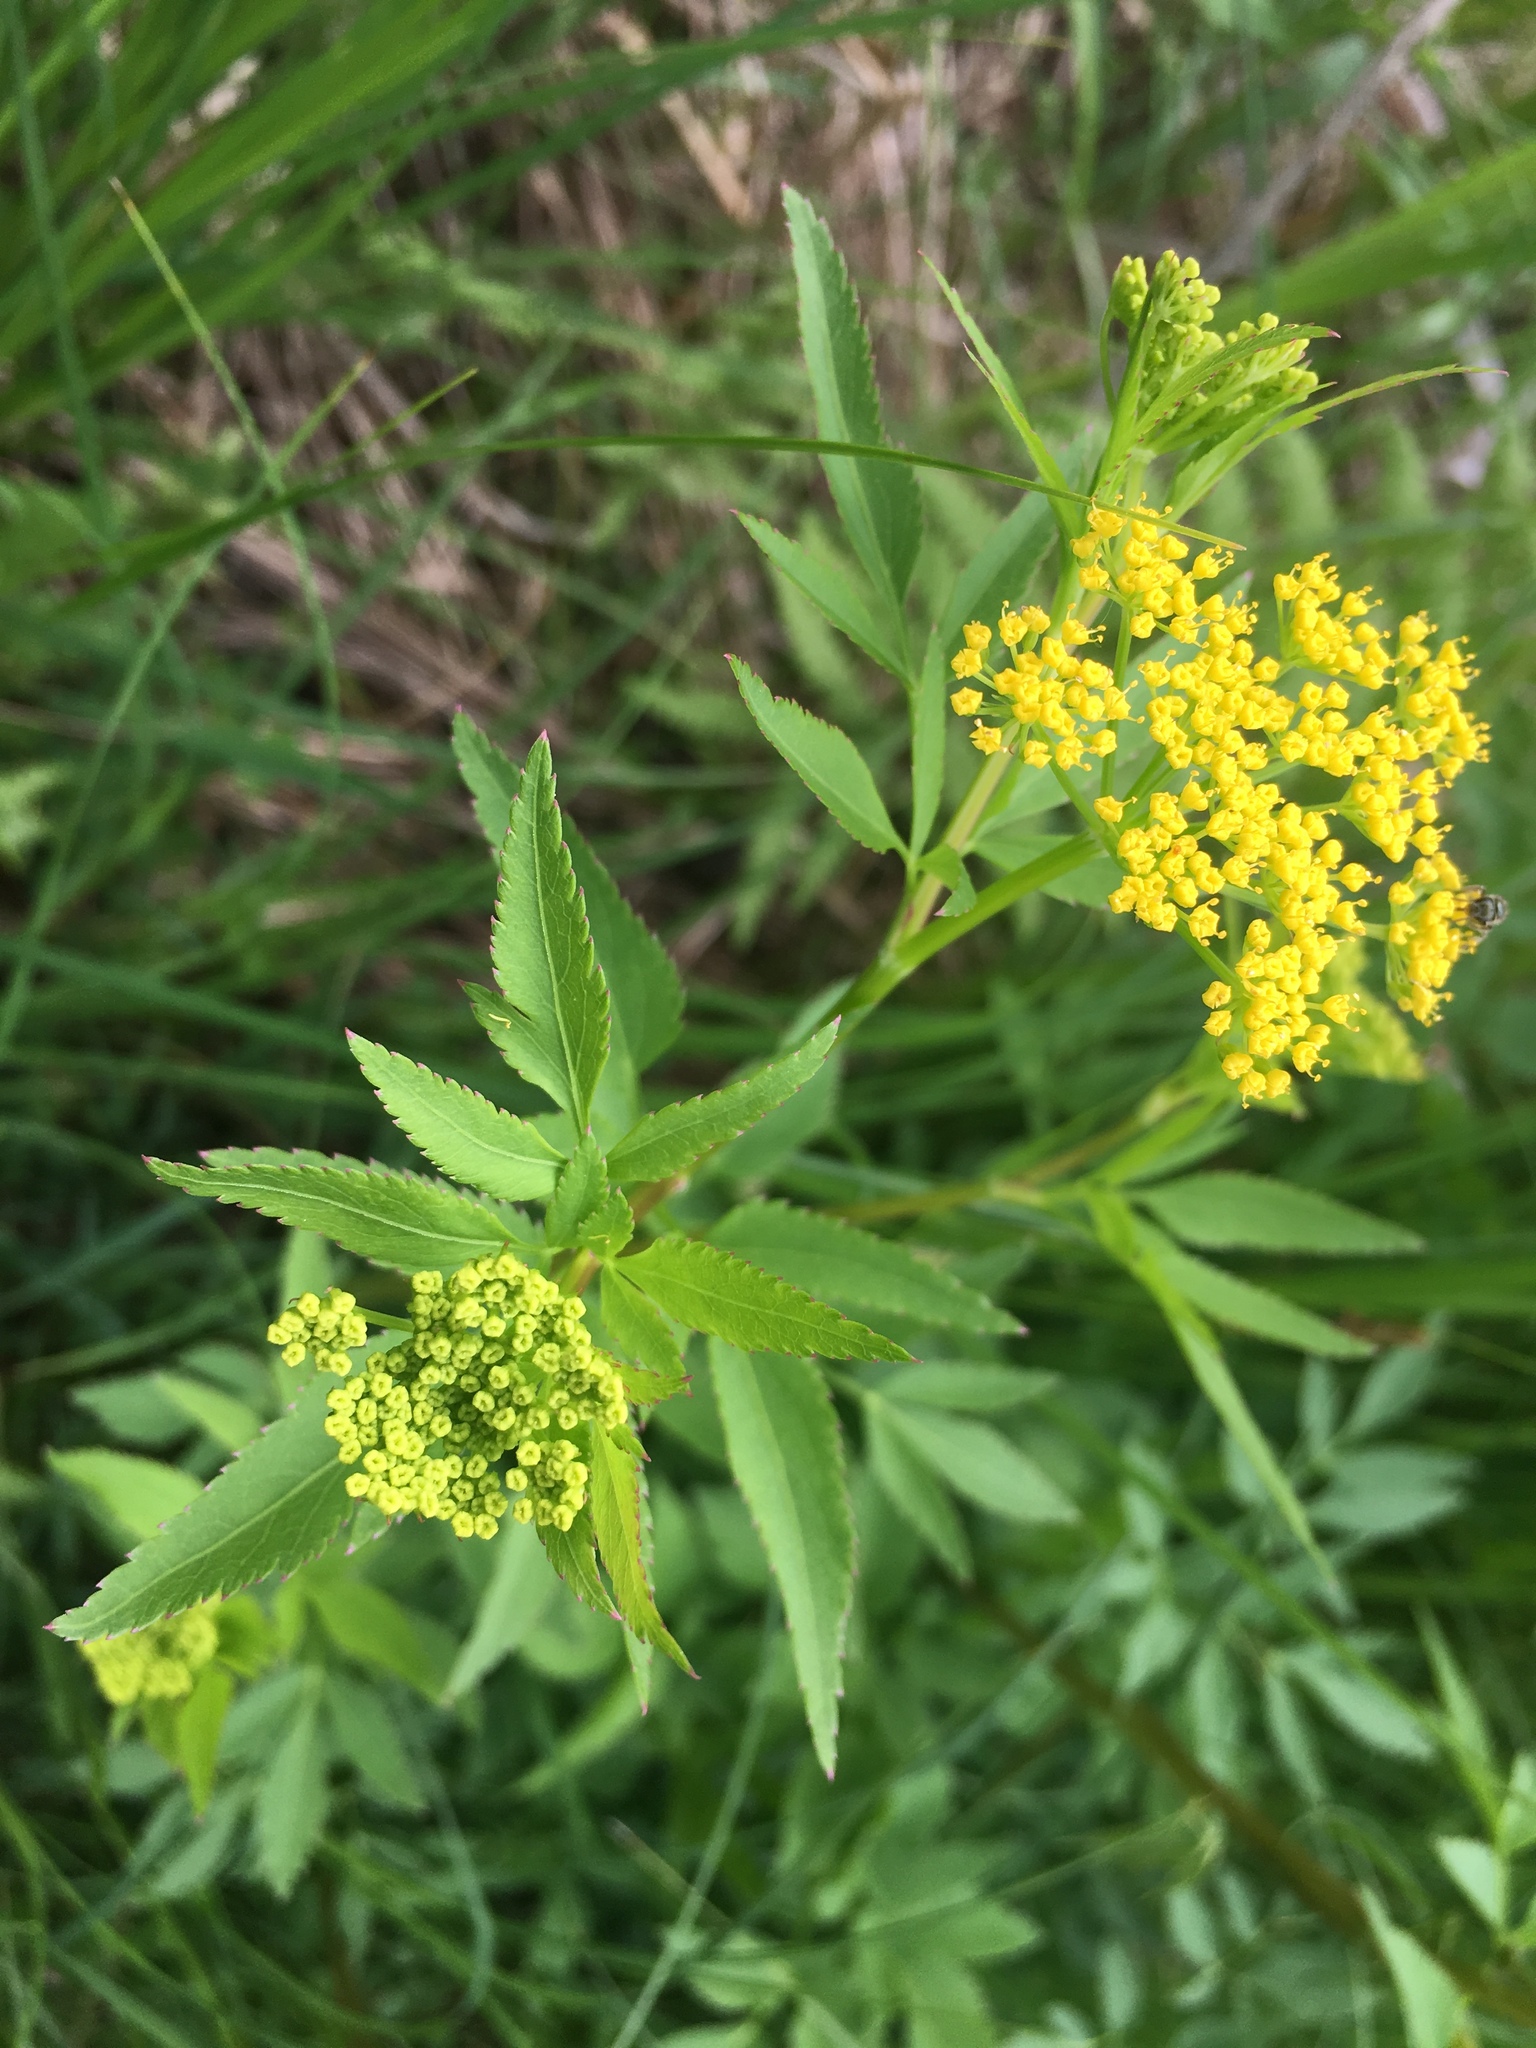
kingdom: Plantae
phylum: Tracheophyta
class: Magnoliopsida
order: Apiales
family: Apiaceae
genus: Zizia
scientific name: Zizia aurea
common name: Golden alexanders
